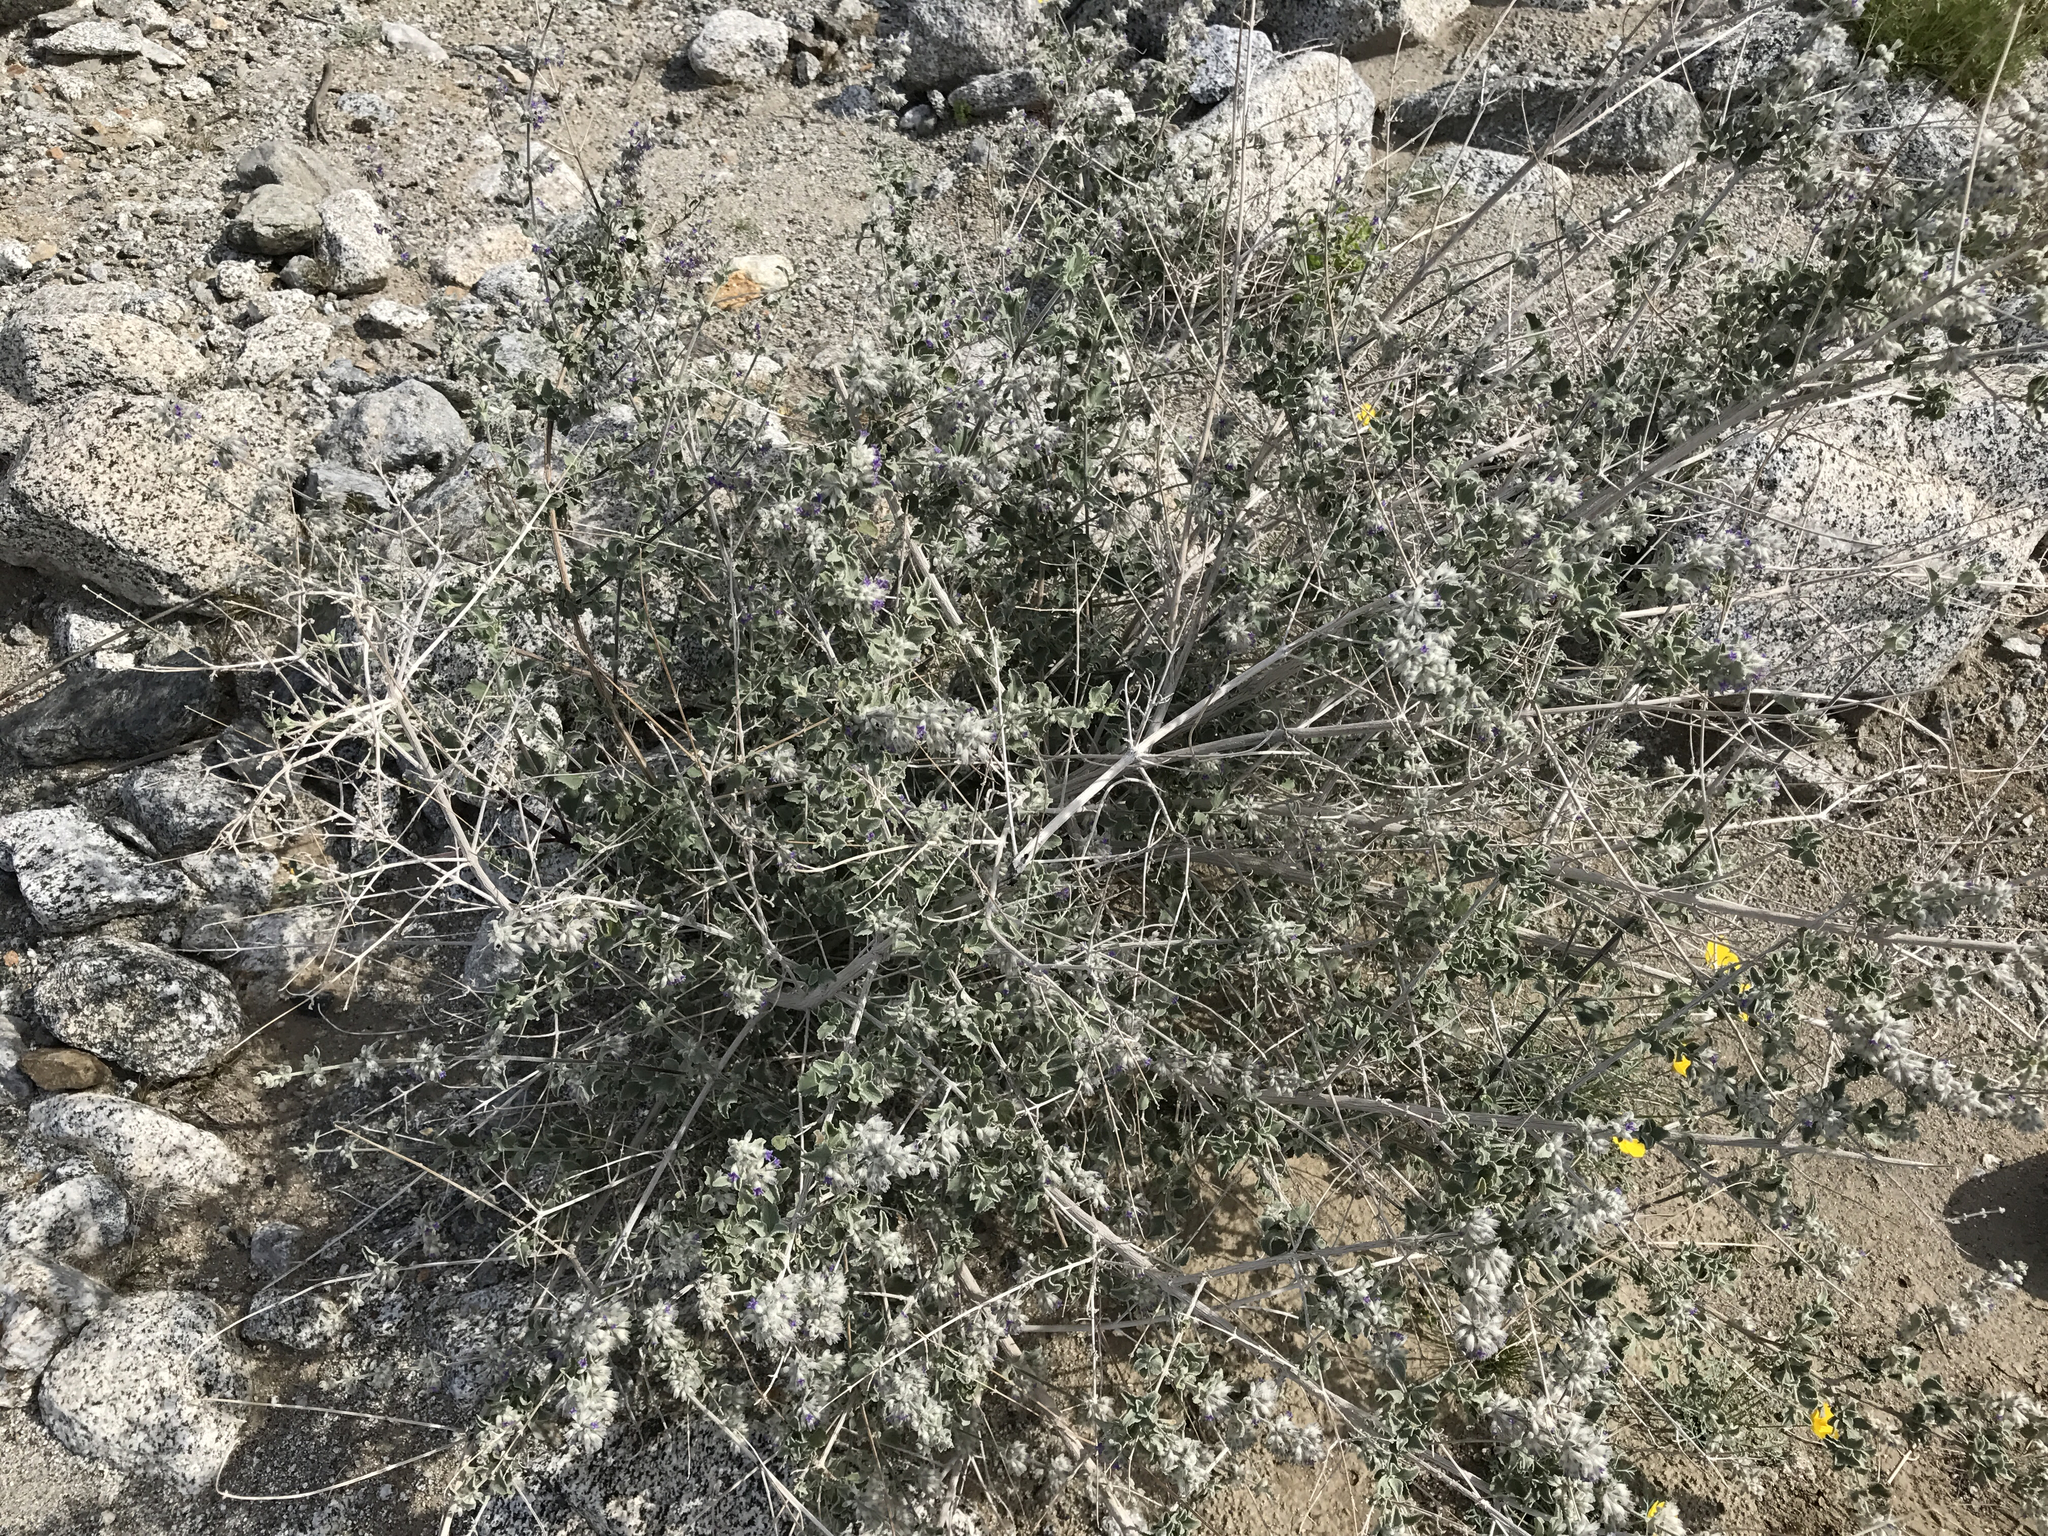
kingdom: Plantae
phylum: Tracheophyta
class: Magnoliopsida
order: Lamiales
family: Lamiaceae
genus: Condea
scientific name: Condea emoryi
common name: Chia
